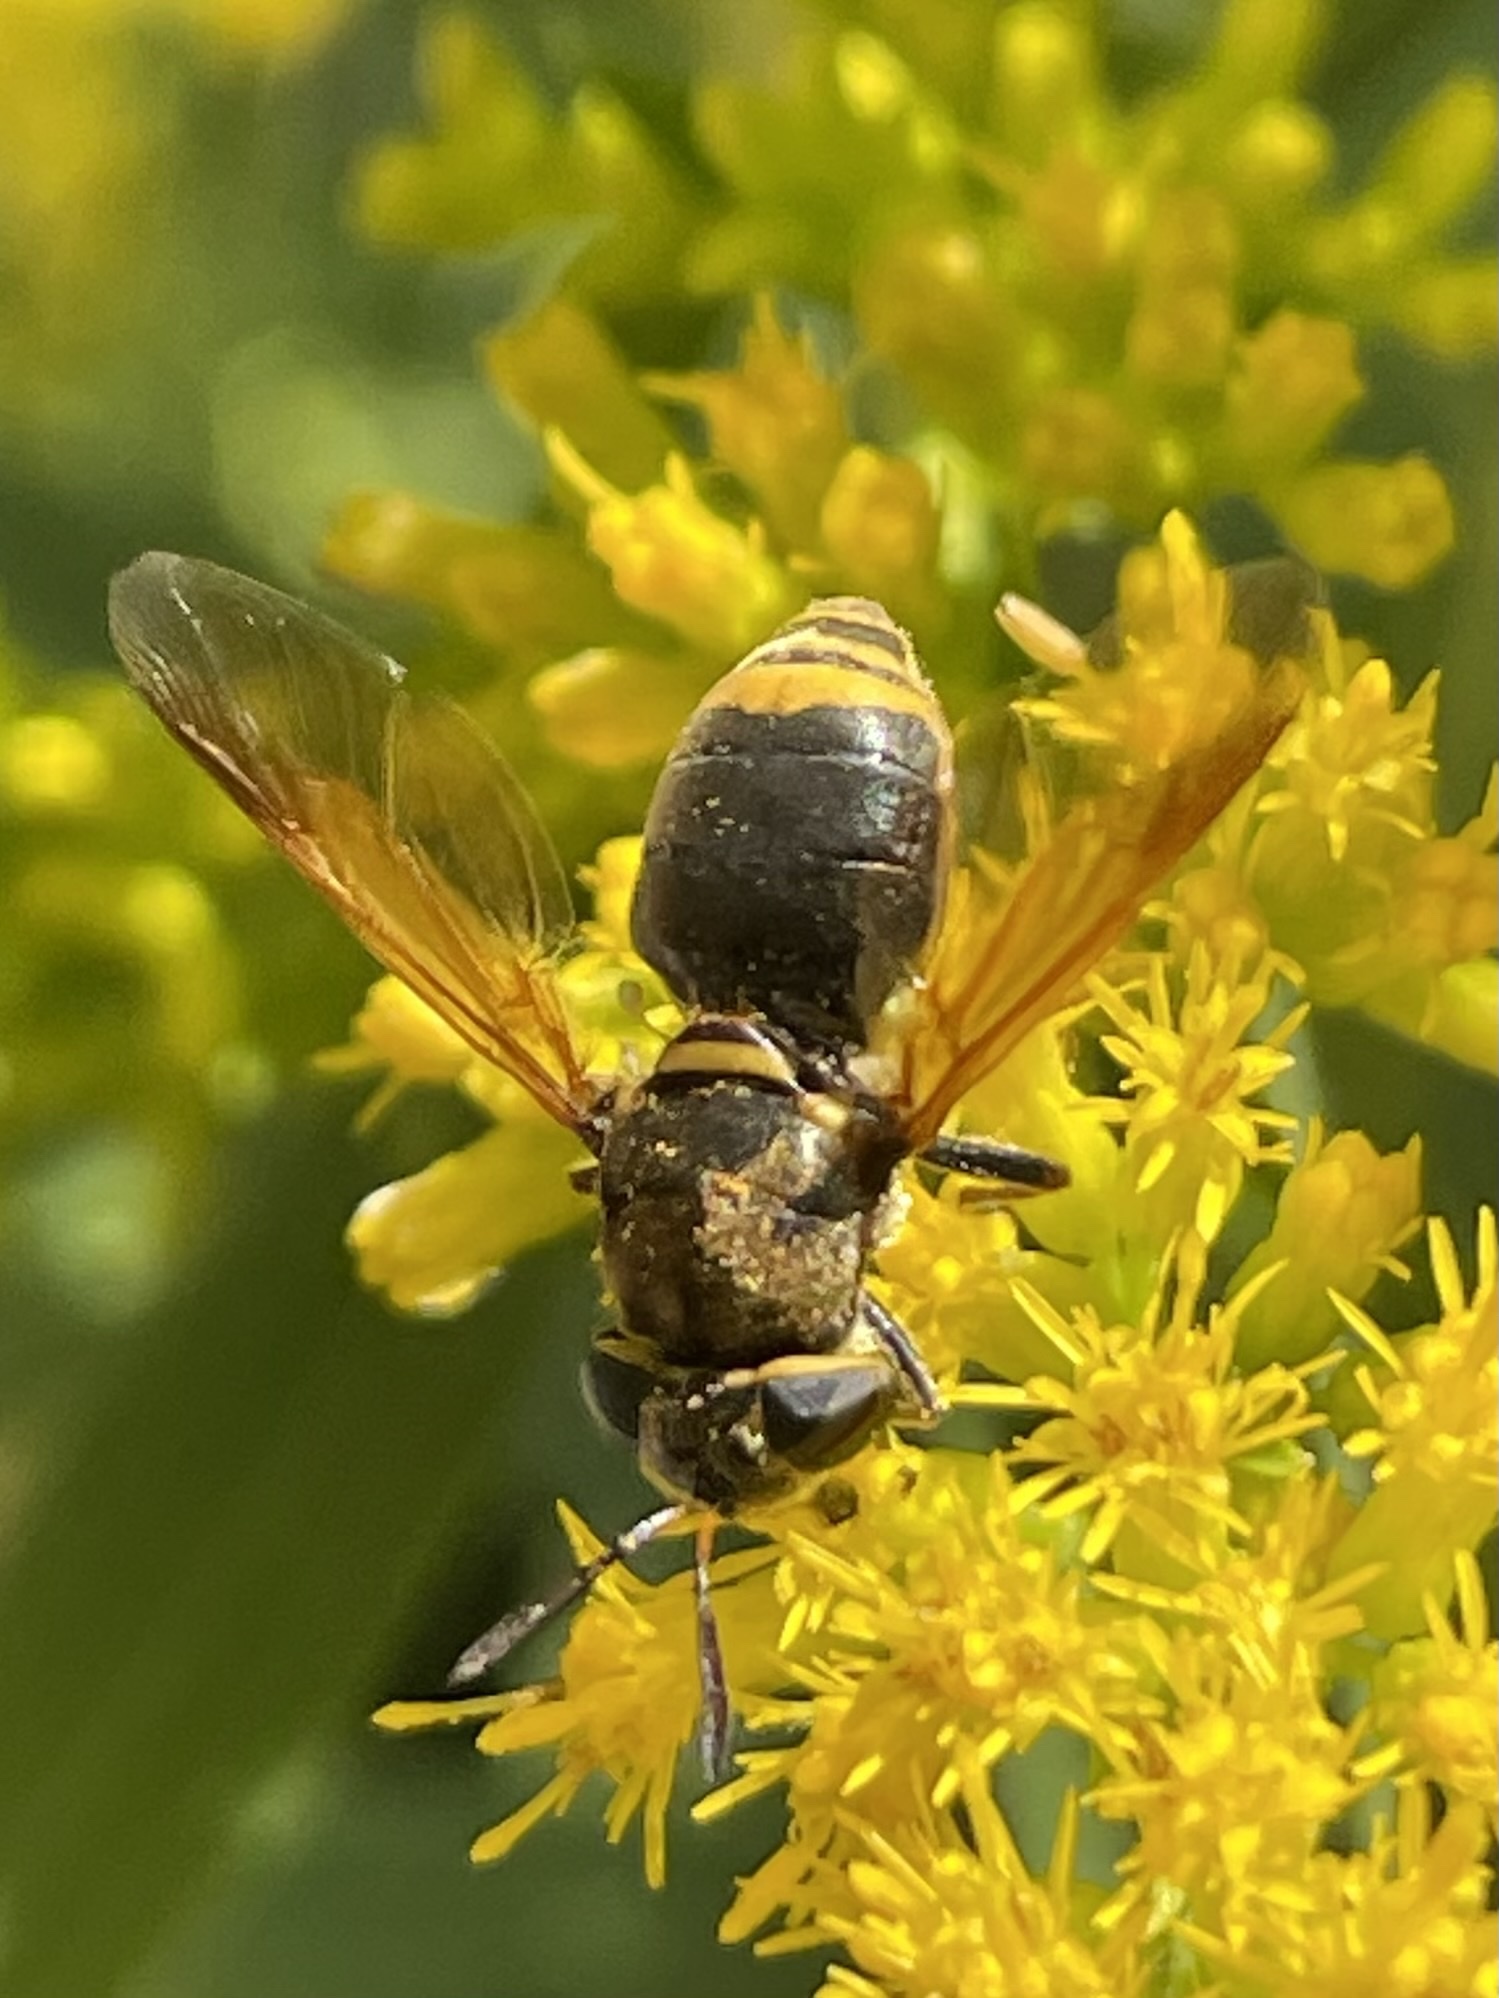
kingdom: Animalia
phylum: Arthropoda
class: Insecta
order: Diptera
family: Stratiomyidae
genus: Hoplitimyia
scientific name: Hoplitimyia mutabilis
